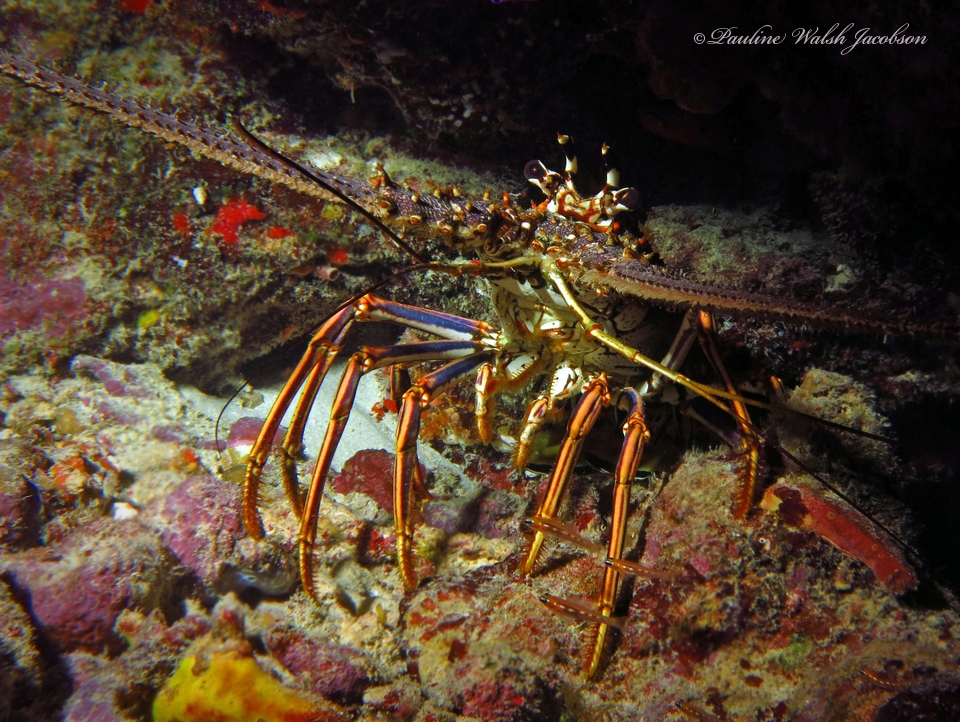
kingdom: Animalia
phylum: Arthropoda
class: Malacostraca
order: Decapoda
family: Palinuridae
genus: Panulirus
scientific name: Panulirus argus
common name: Caribbean spiny lobster
